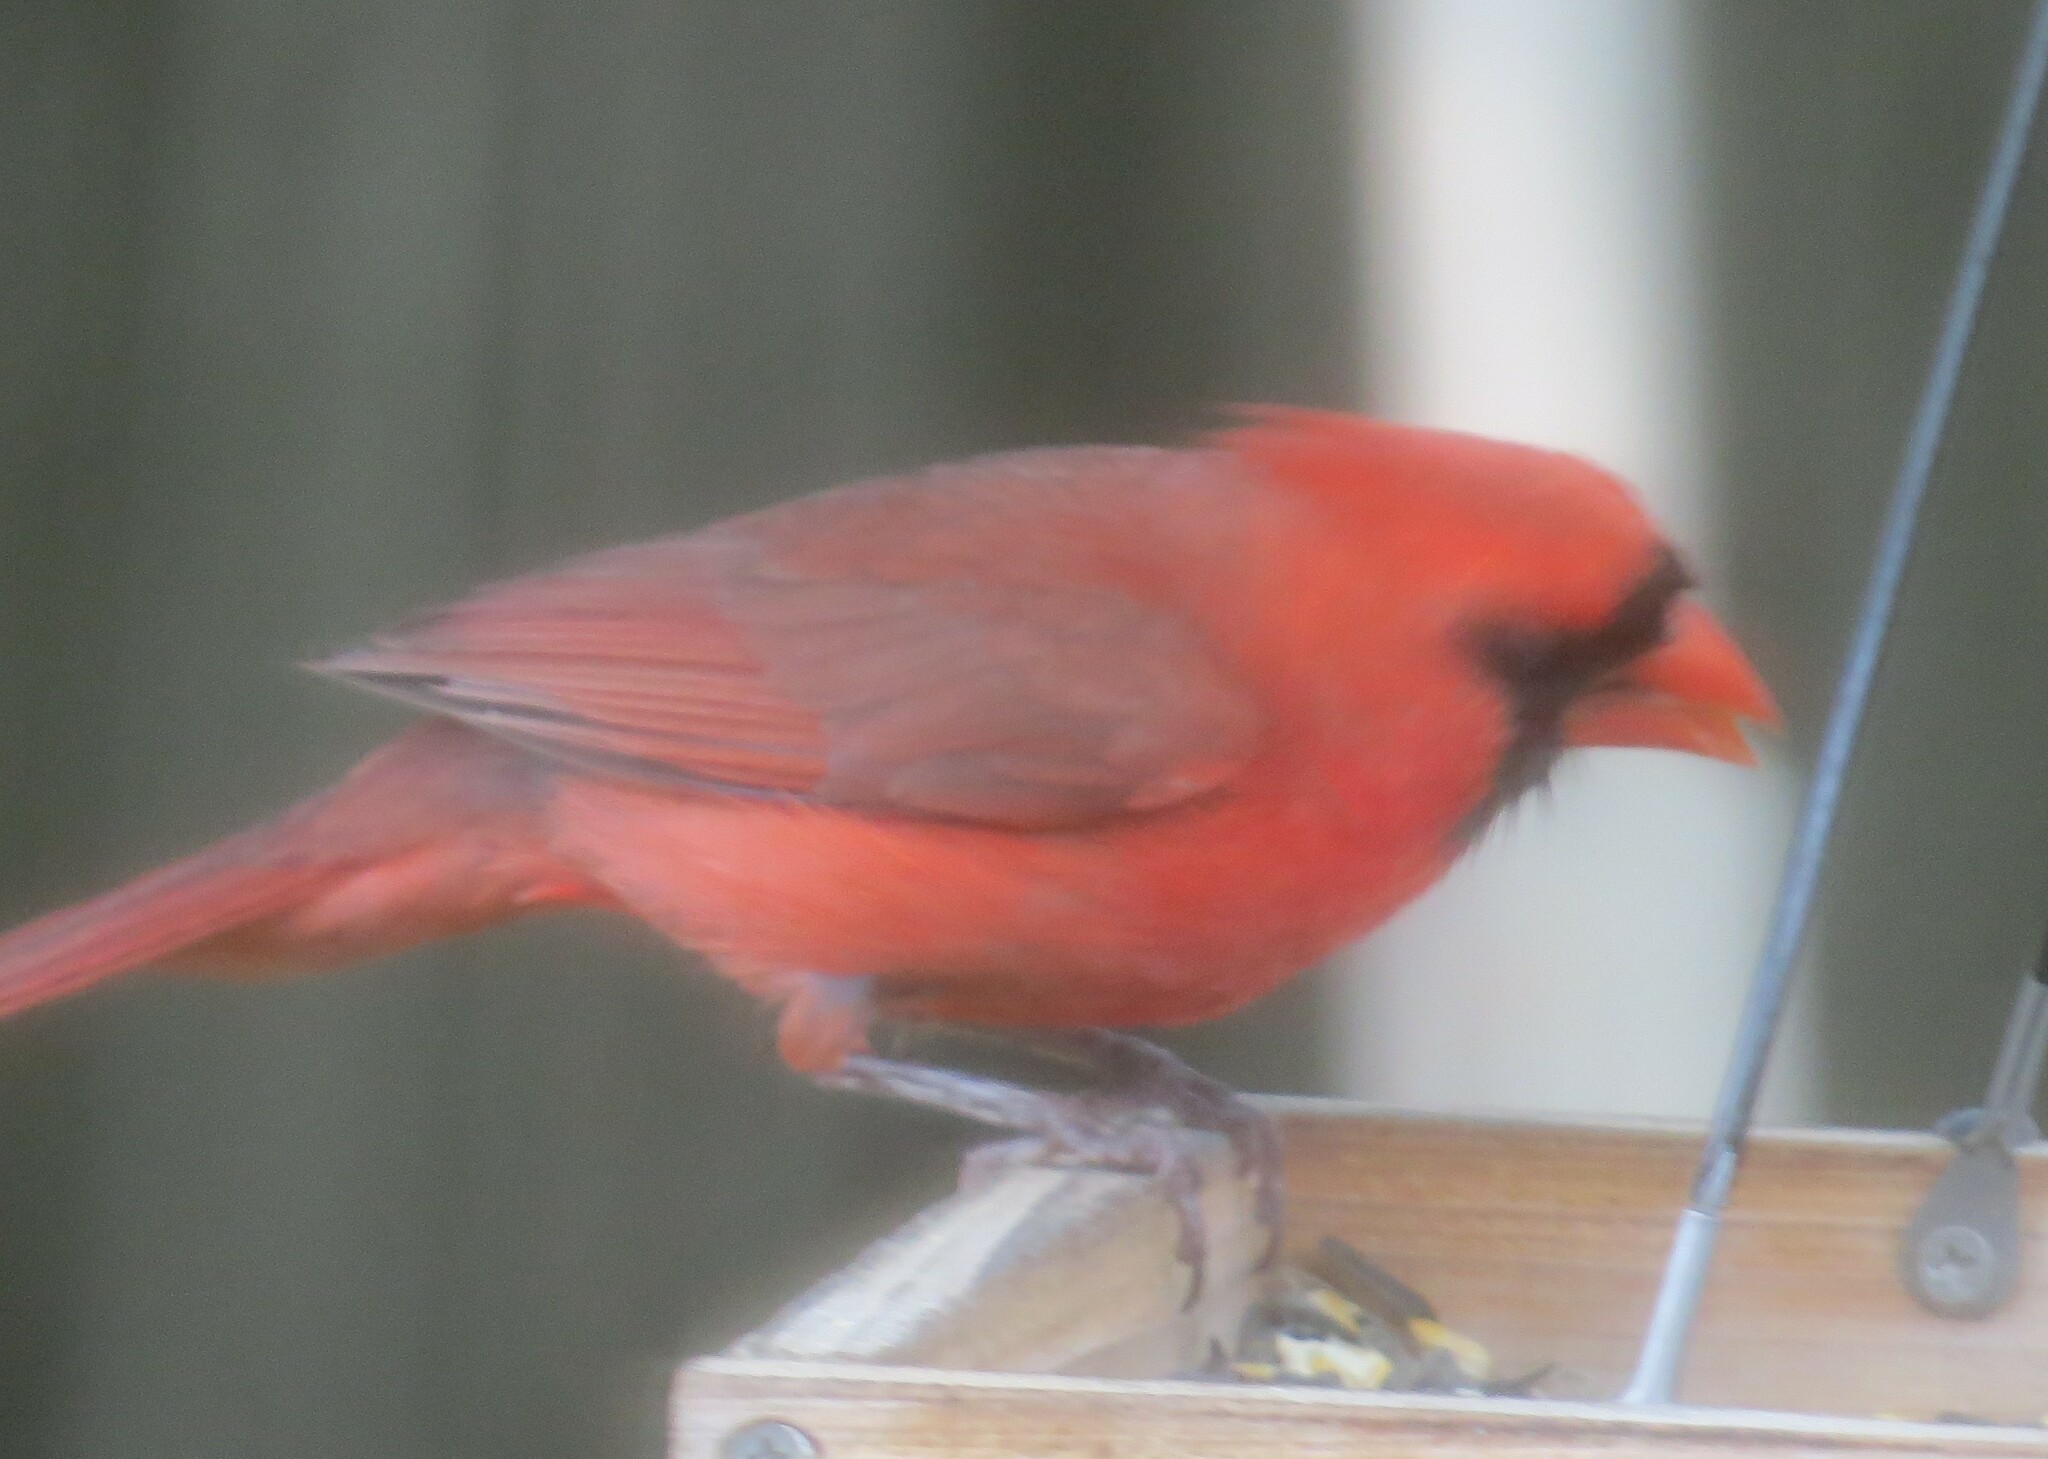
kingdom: Animalia
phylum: Chordata
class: Aves
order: Passeriformes
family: Cardinalidae
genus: Cardinalis
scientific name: Cardinalis cardinalis
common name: Northern cardinal
